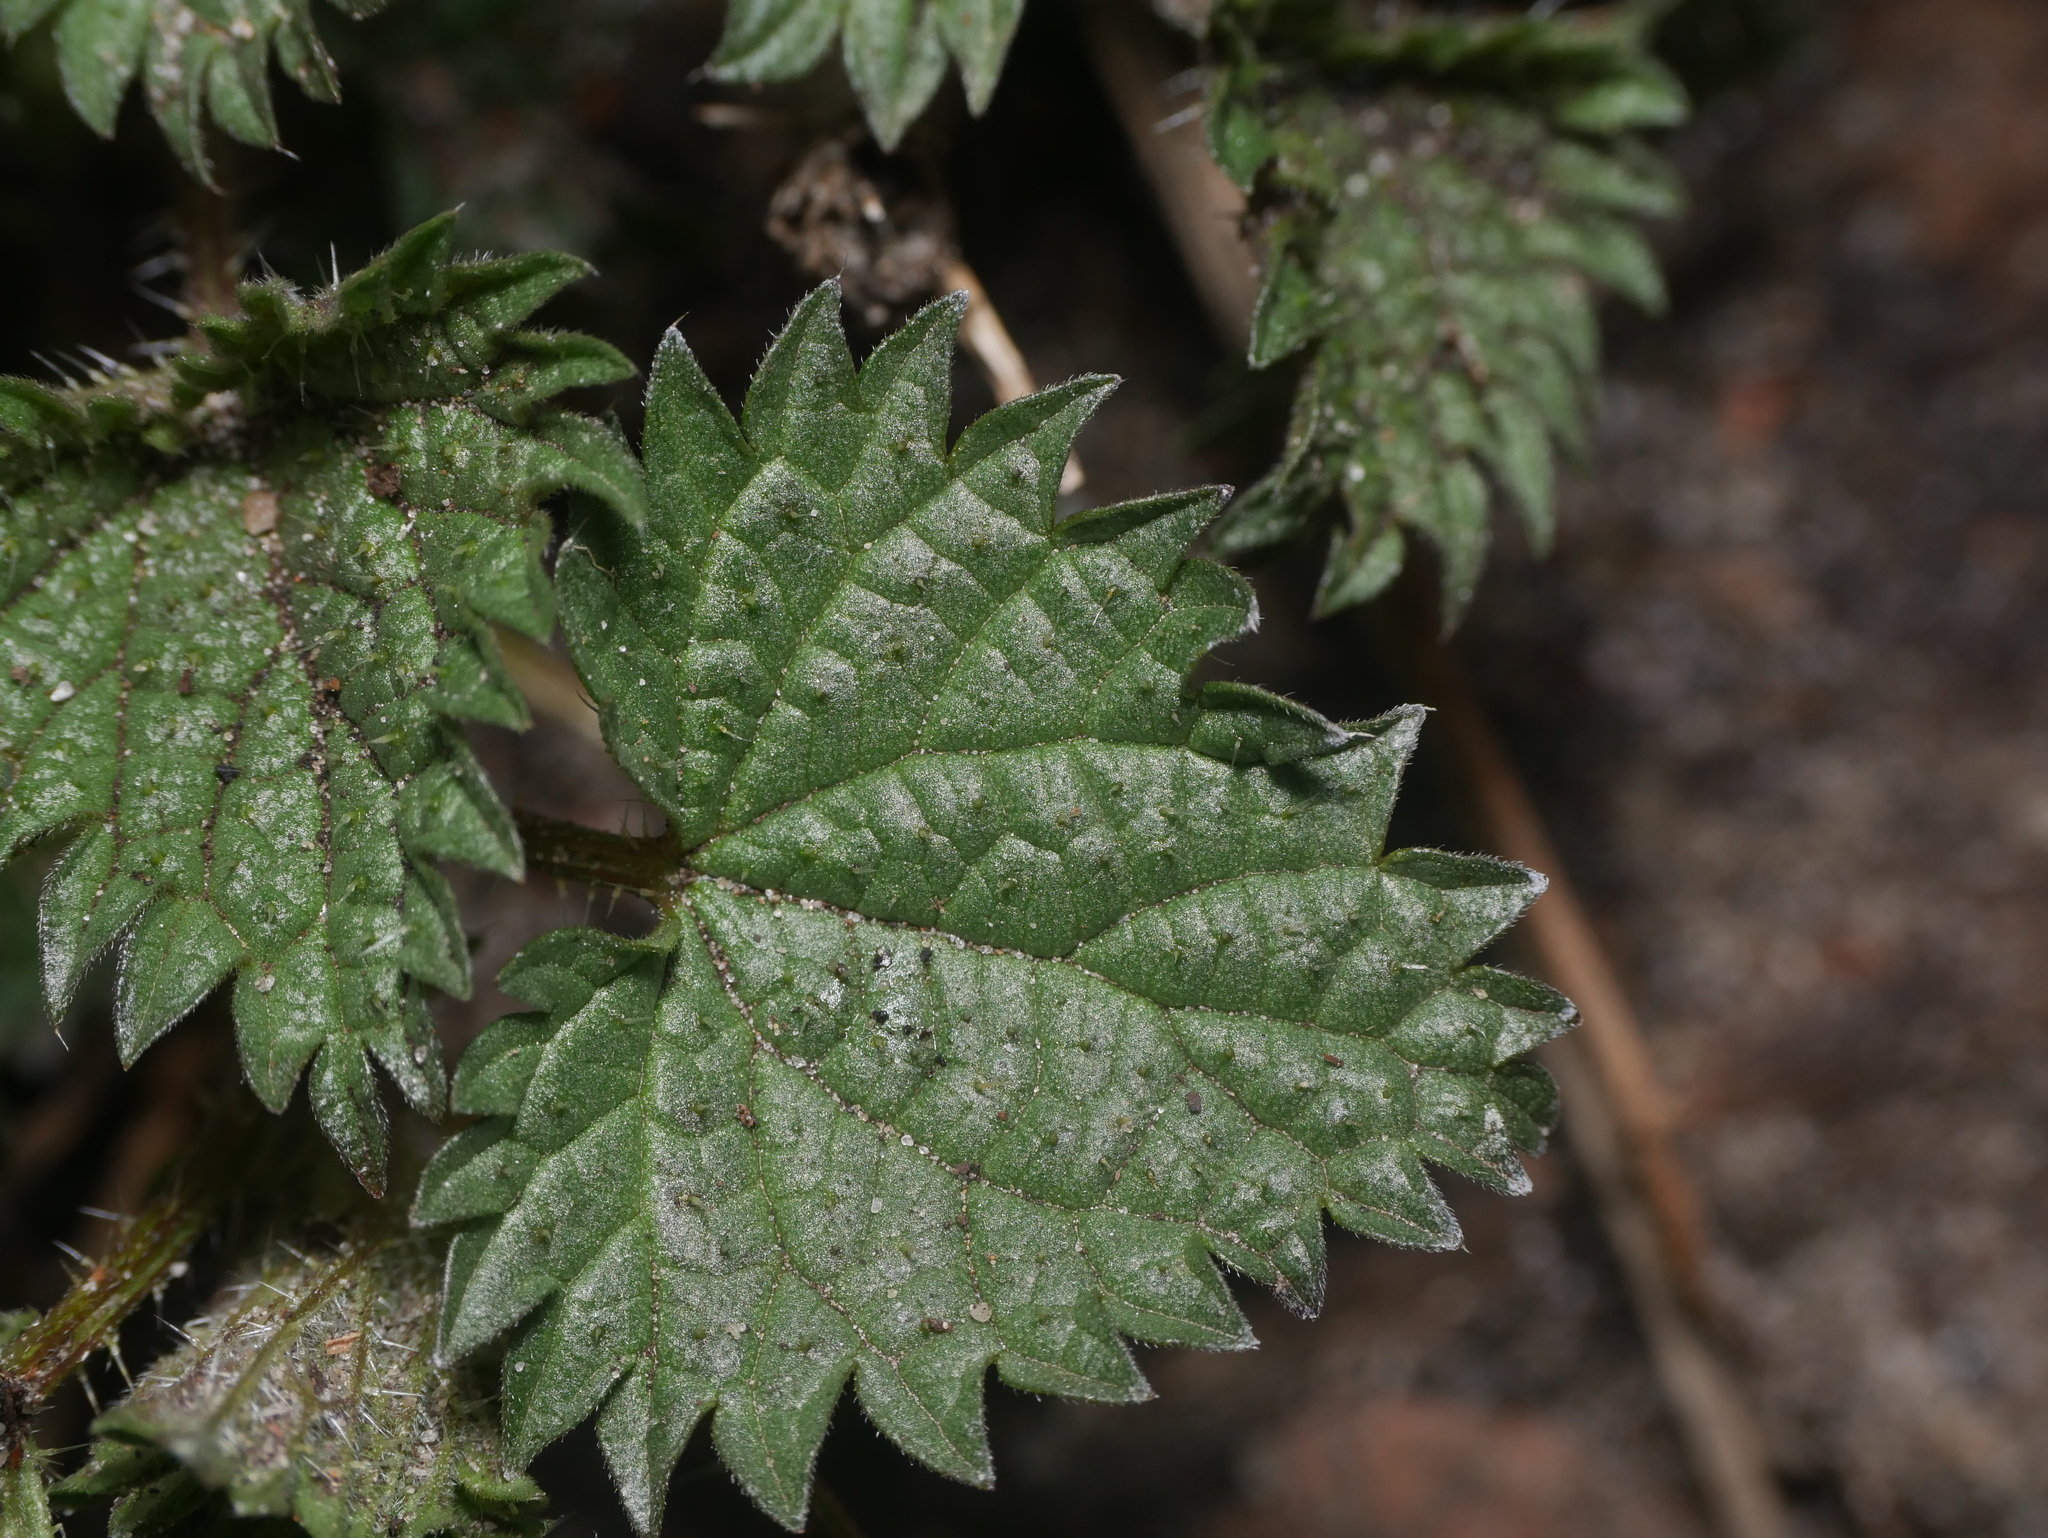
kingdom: Plantae
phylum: Tracheophyta
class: Magnoliopsida
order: Rosales
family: Urticaceae
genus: Urtica
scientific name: Urtica dioica
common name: Common nettle
